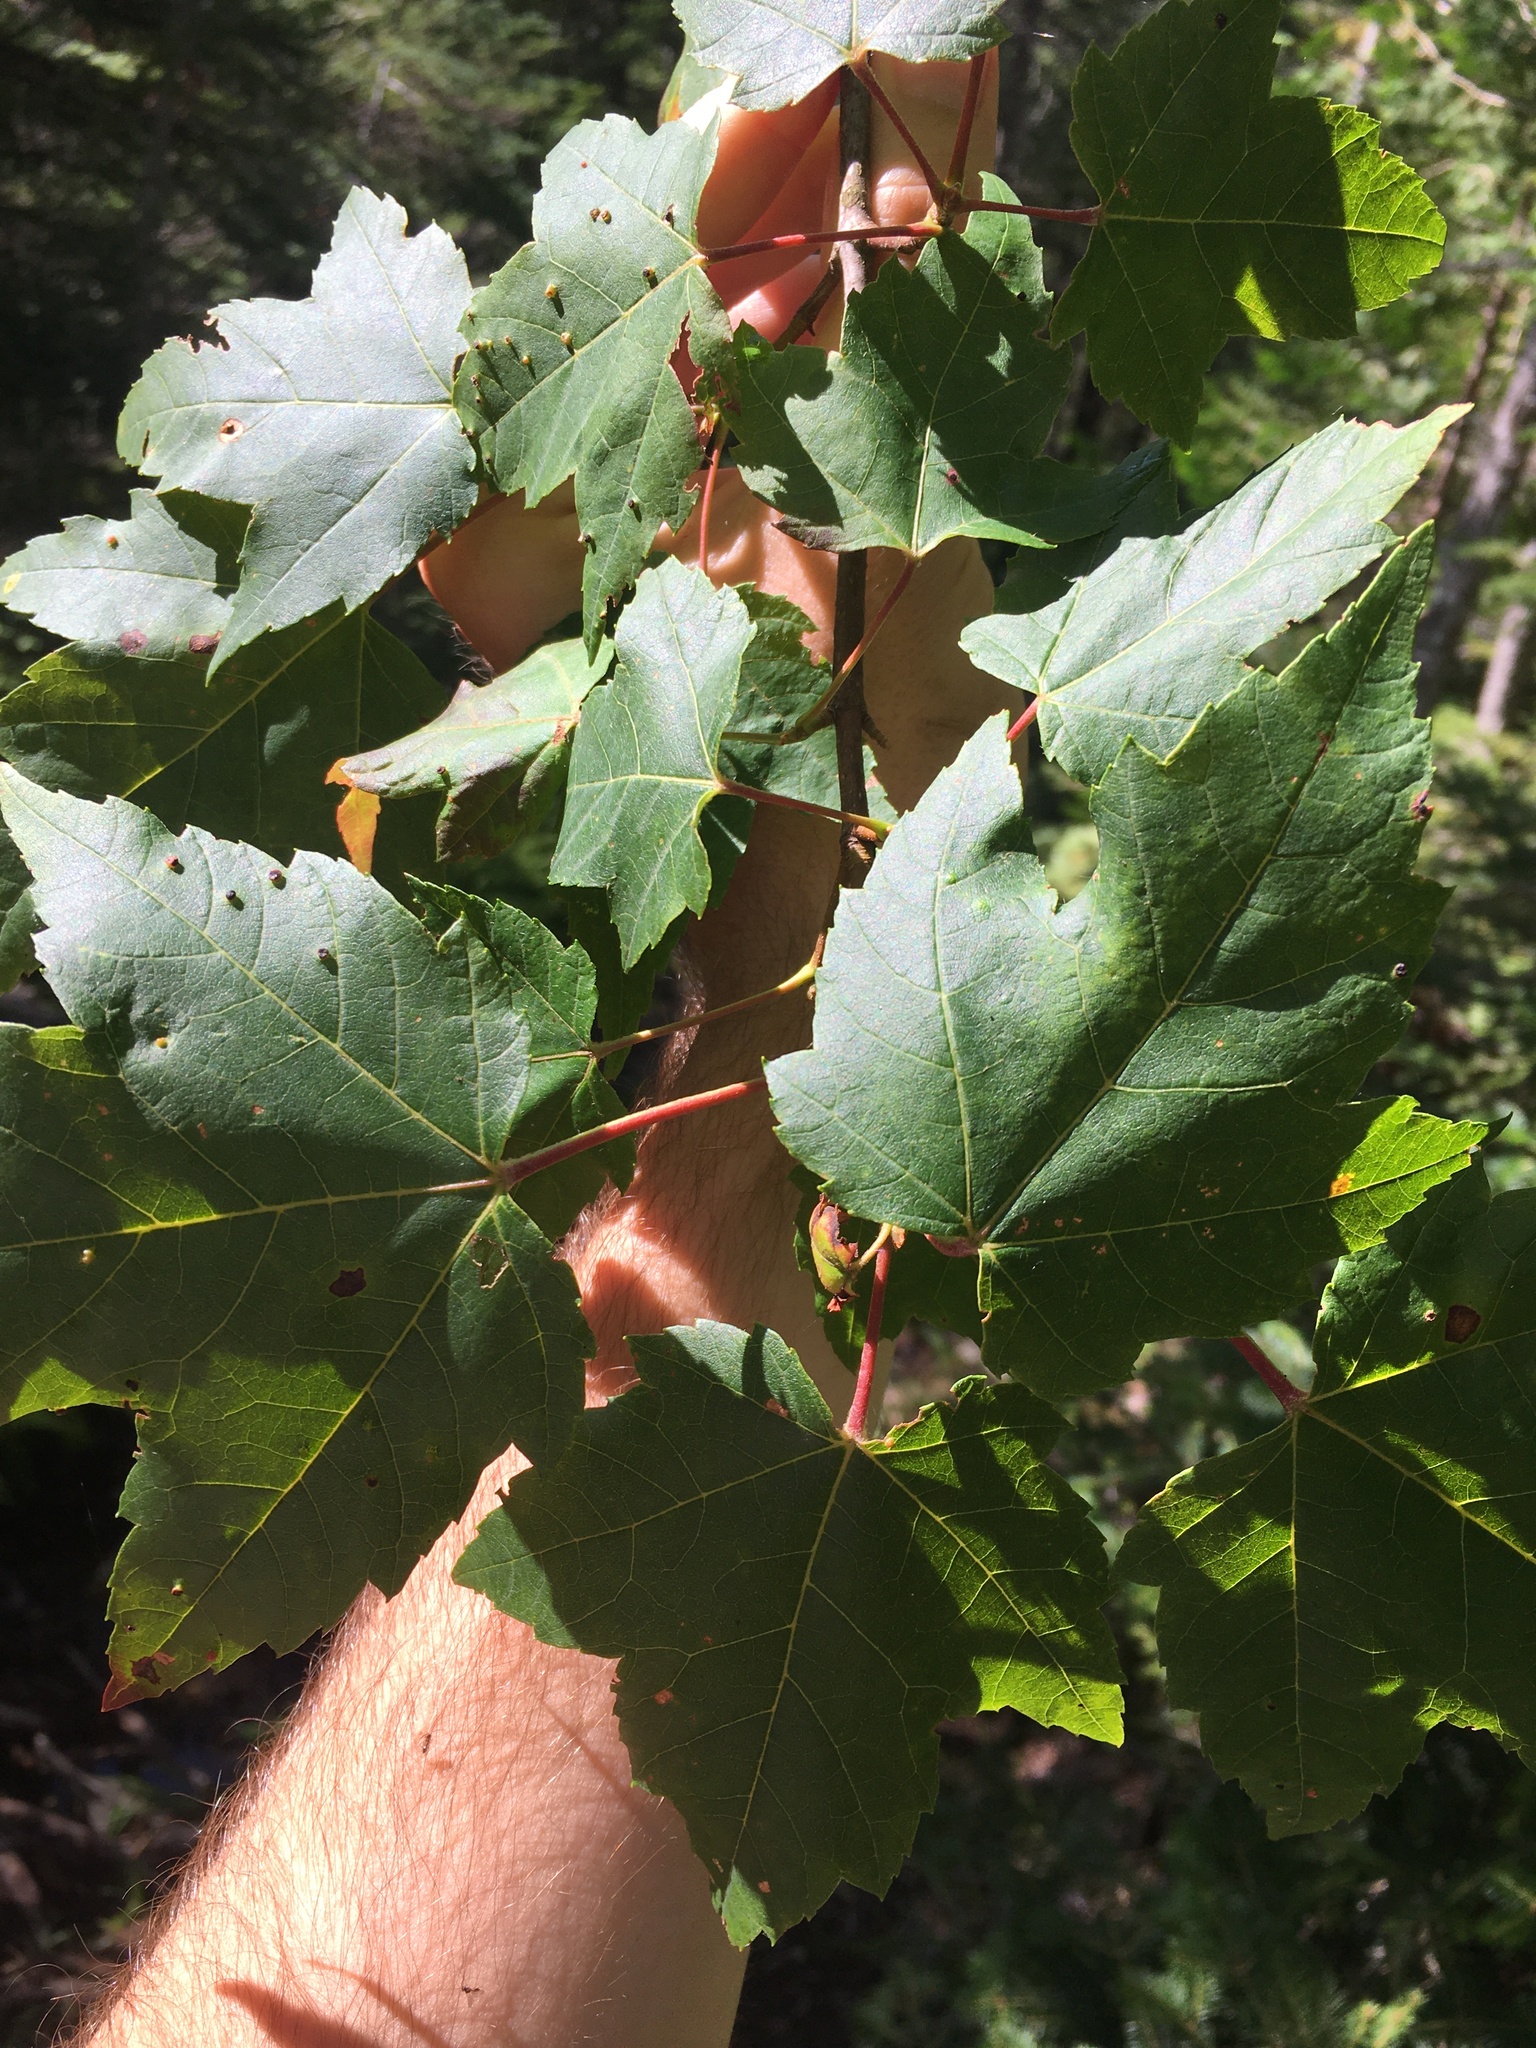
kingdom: Plantae
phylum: Tracheophyta
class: Magnoliopsida
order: Sapindales
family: Sapindaceae
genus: Acer
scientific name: Acer rubrum
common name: Red maple
